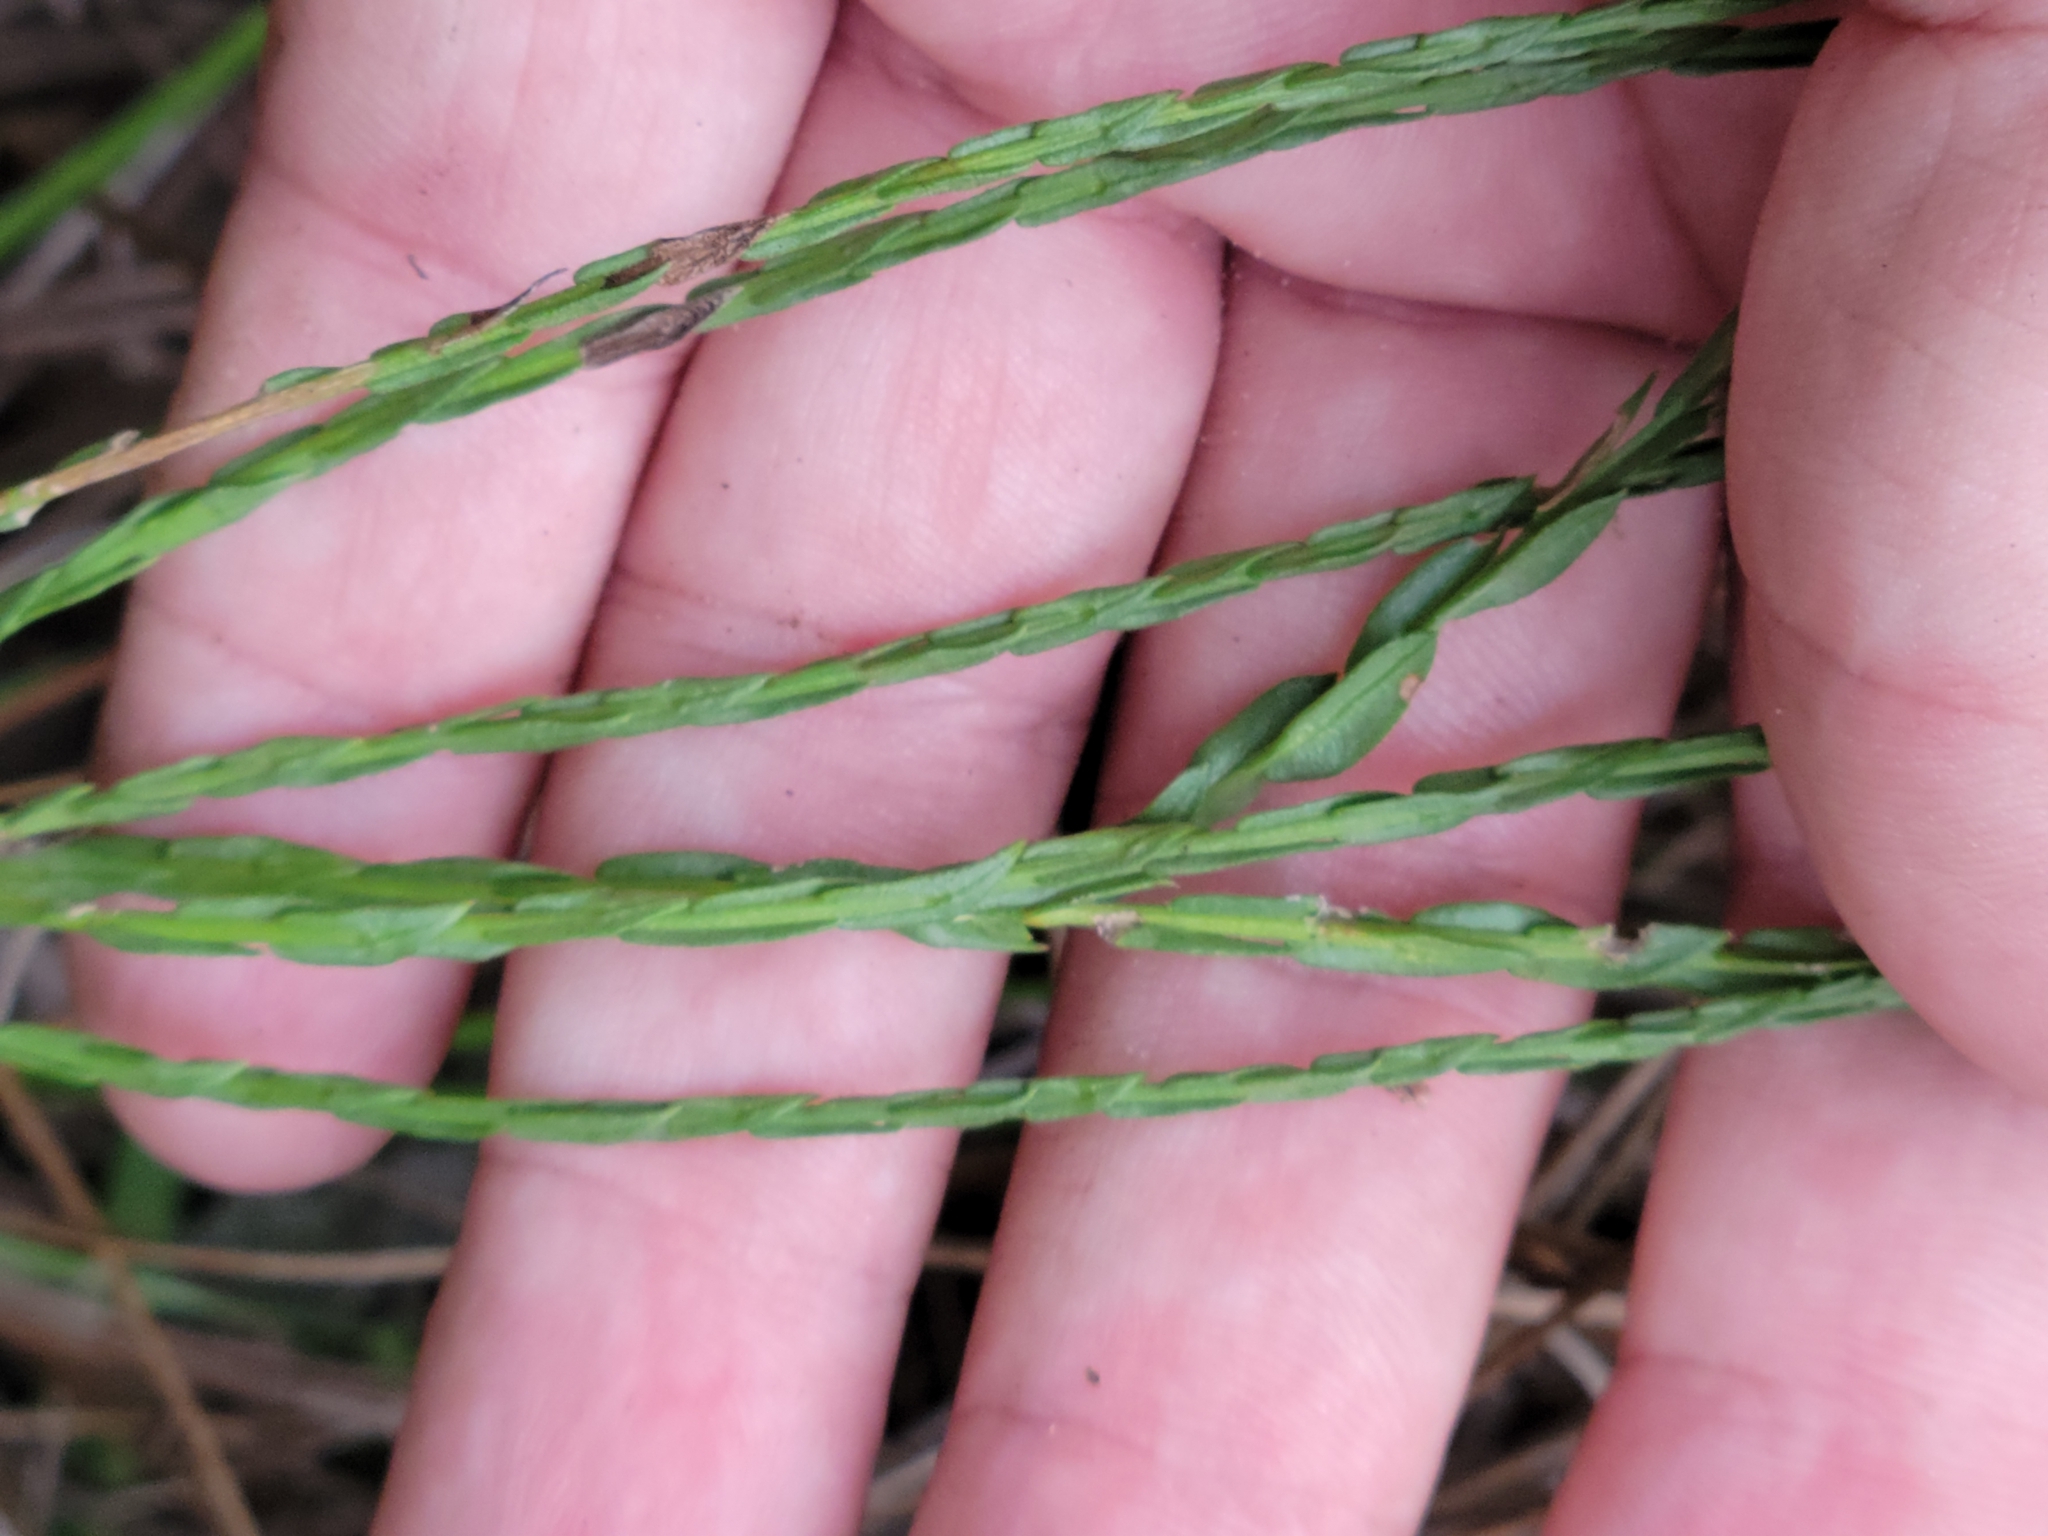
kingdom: Plantae
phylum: Tracheophyta
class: Magnoliopsida
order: Asterales
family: Asteraceae
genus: Symphyotrichum
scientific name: Symphyotrichum adnatum
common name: Scale-leaf aster
